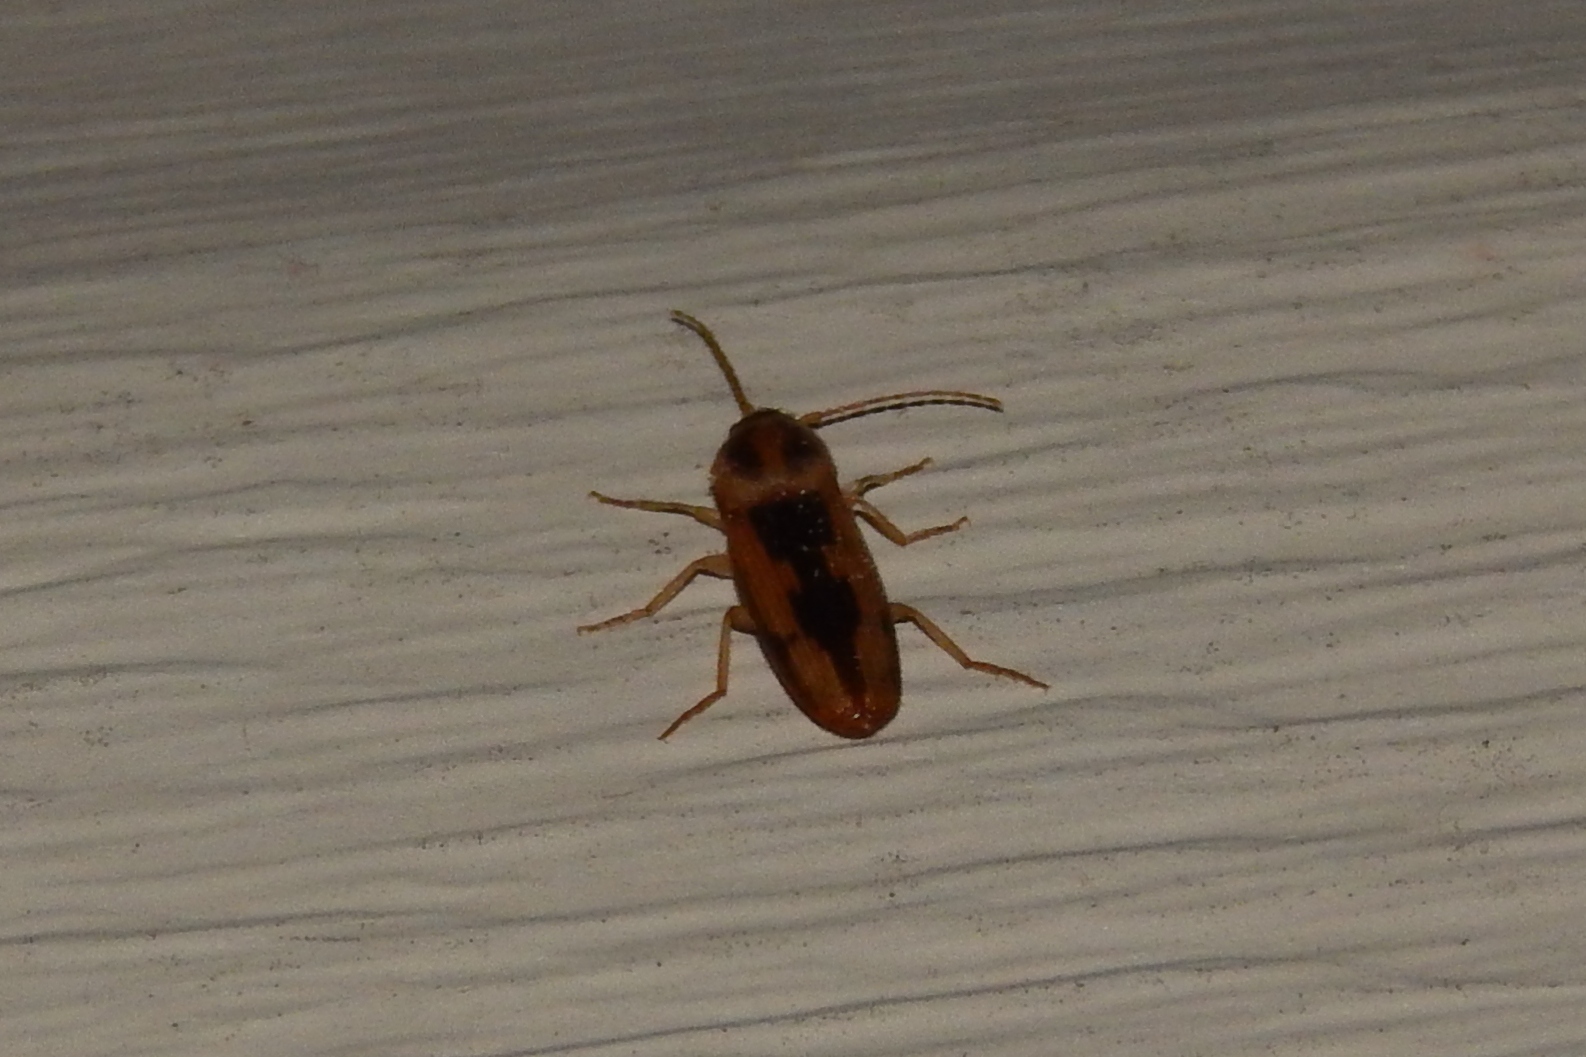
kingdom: Animalia
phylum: Arthropoda
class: Insecta
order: Coleoptera
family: Elateridae
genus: Monocrepidius
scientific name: Monocrepidius
